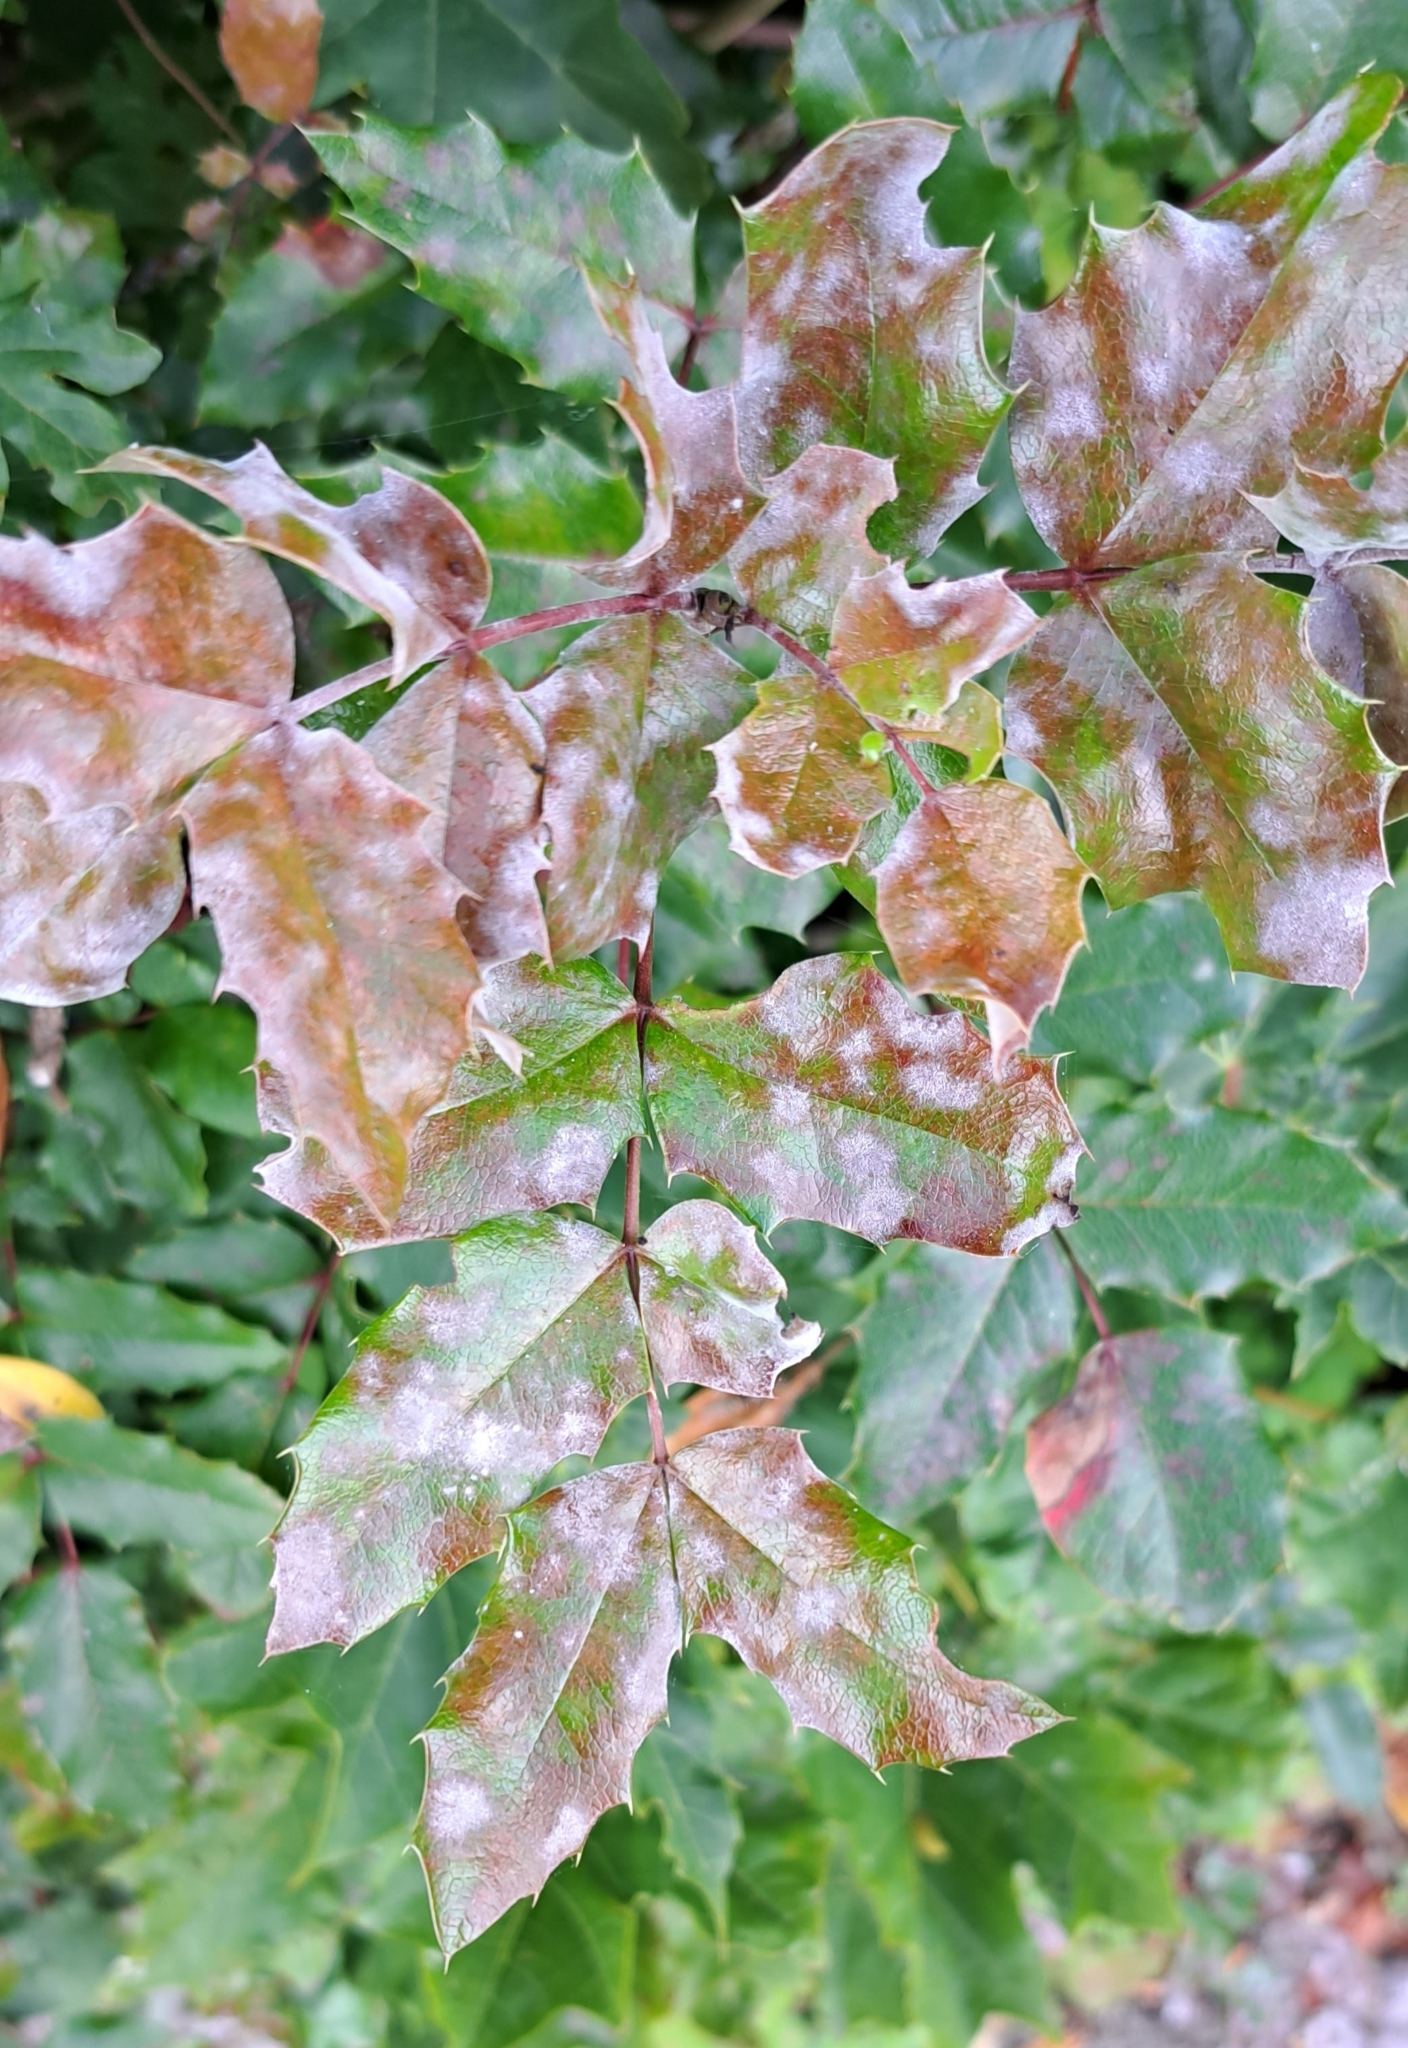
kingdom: Fungi
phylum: Ascomycota
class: Leotiomycetes
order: Helotiales
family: Erysiphaceae
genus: Erysiphe
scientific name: Erysiphe berberidis
